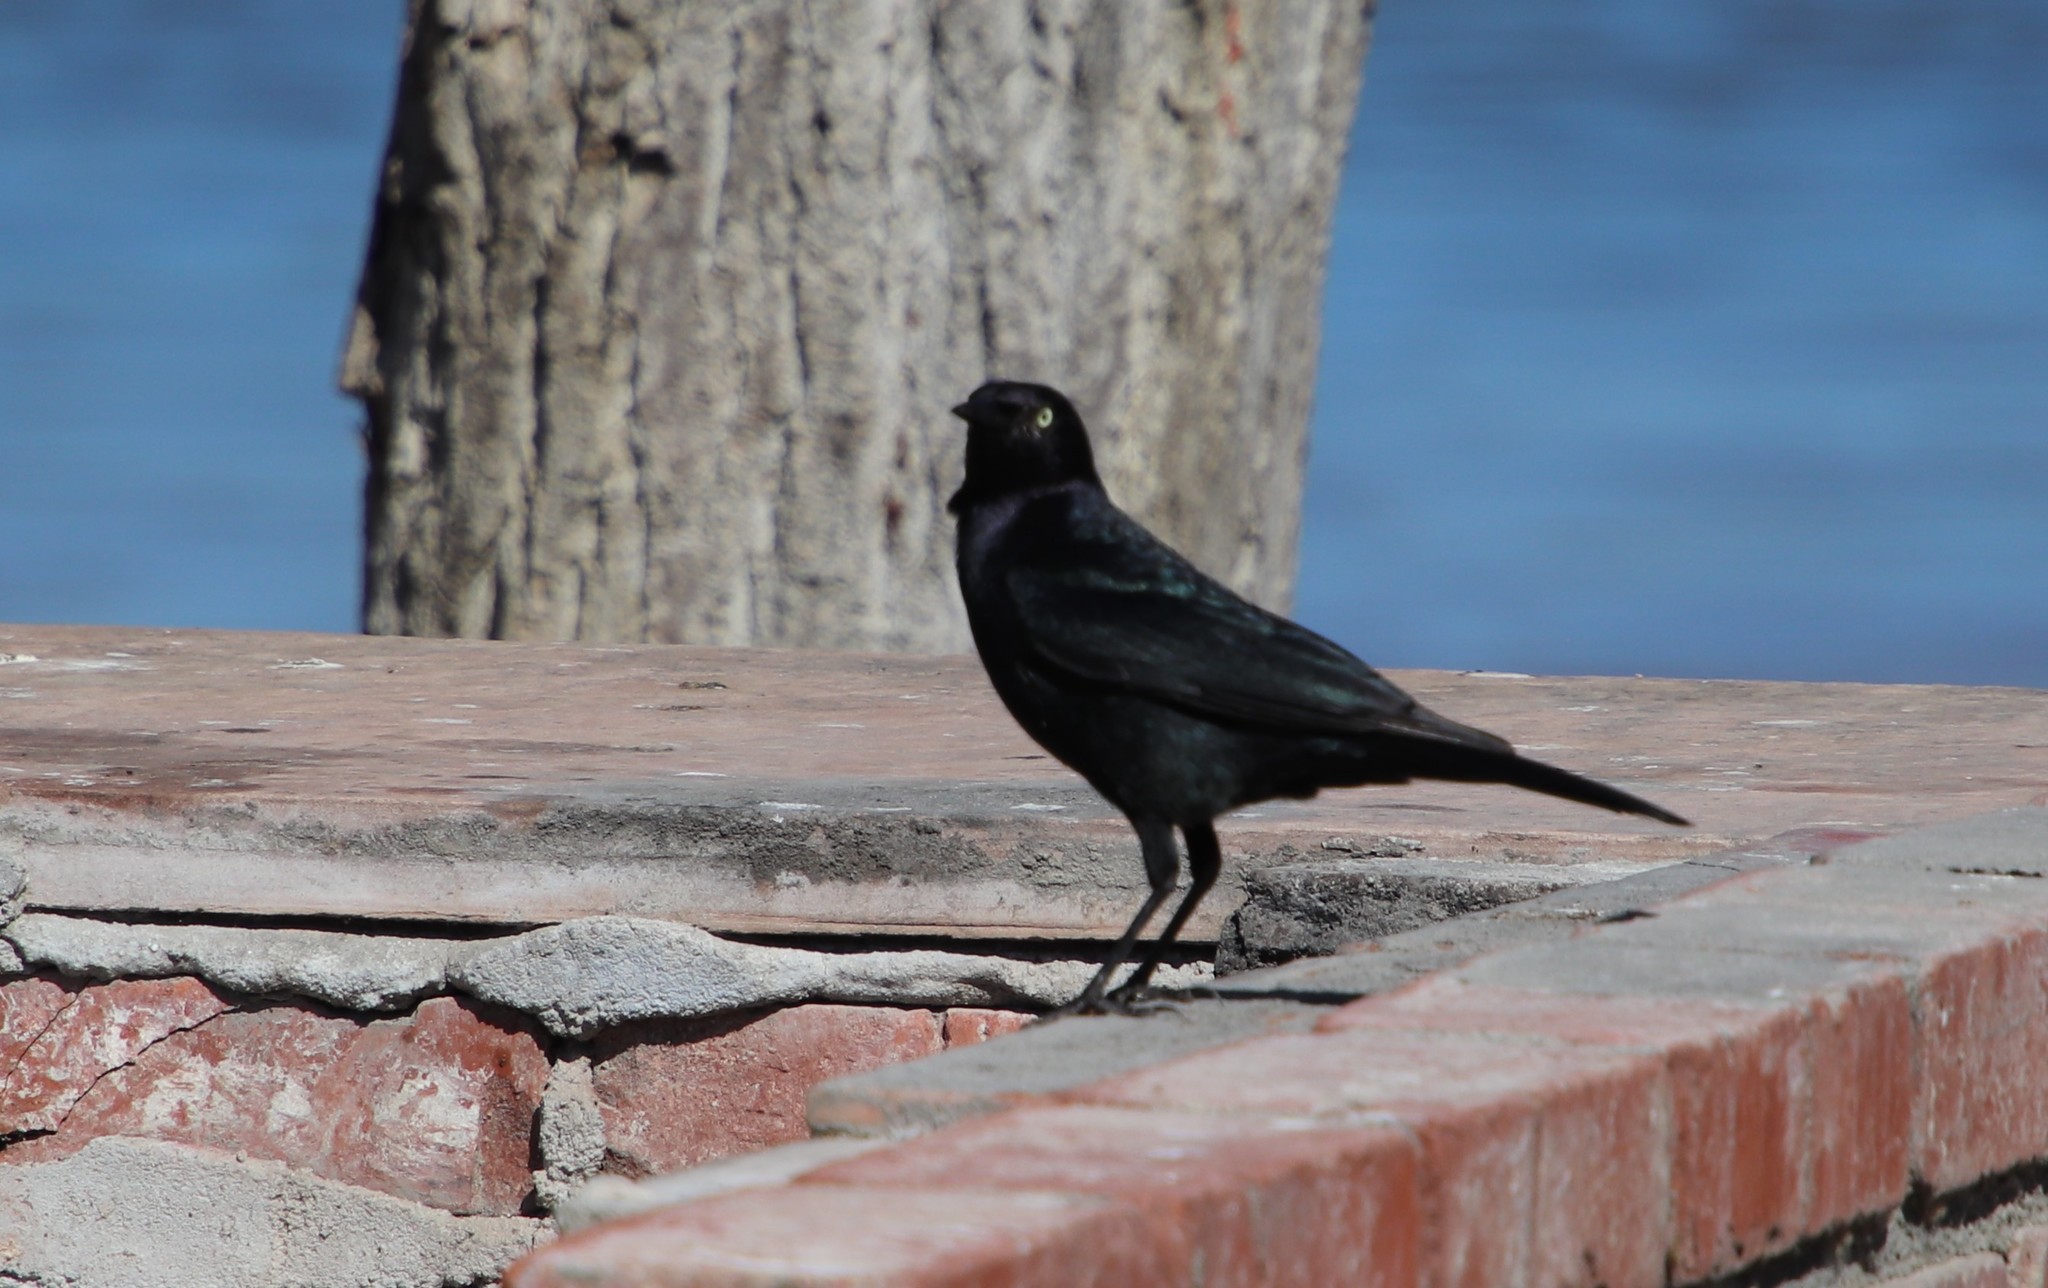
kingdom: Animalia
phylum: Chordata
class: Aves
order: Passeriformes
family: Icteridae
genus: Euphagus
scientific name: Euphagus cyanocephalus
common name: Brewer's blackbird
